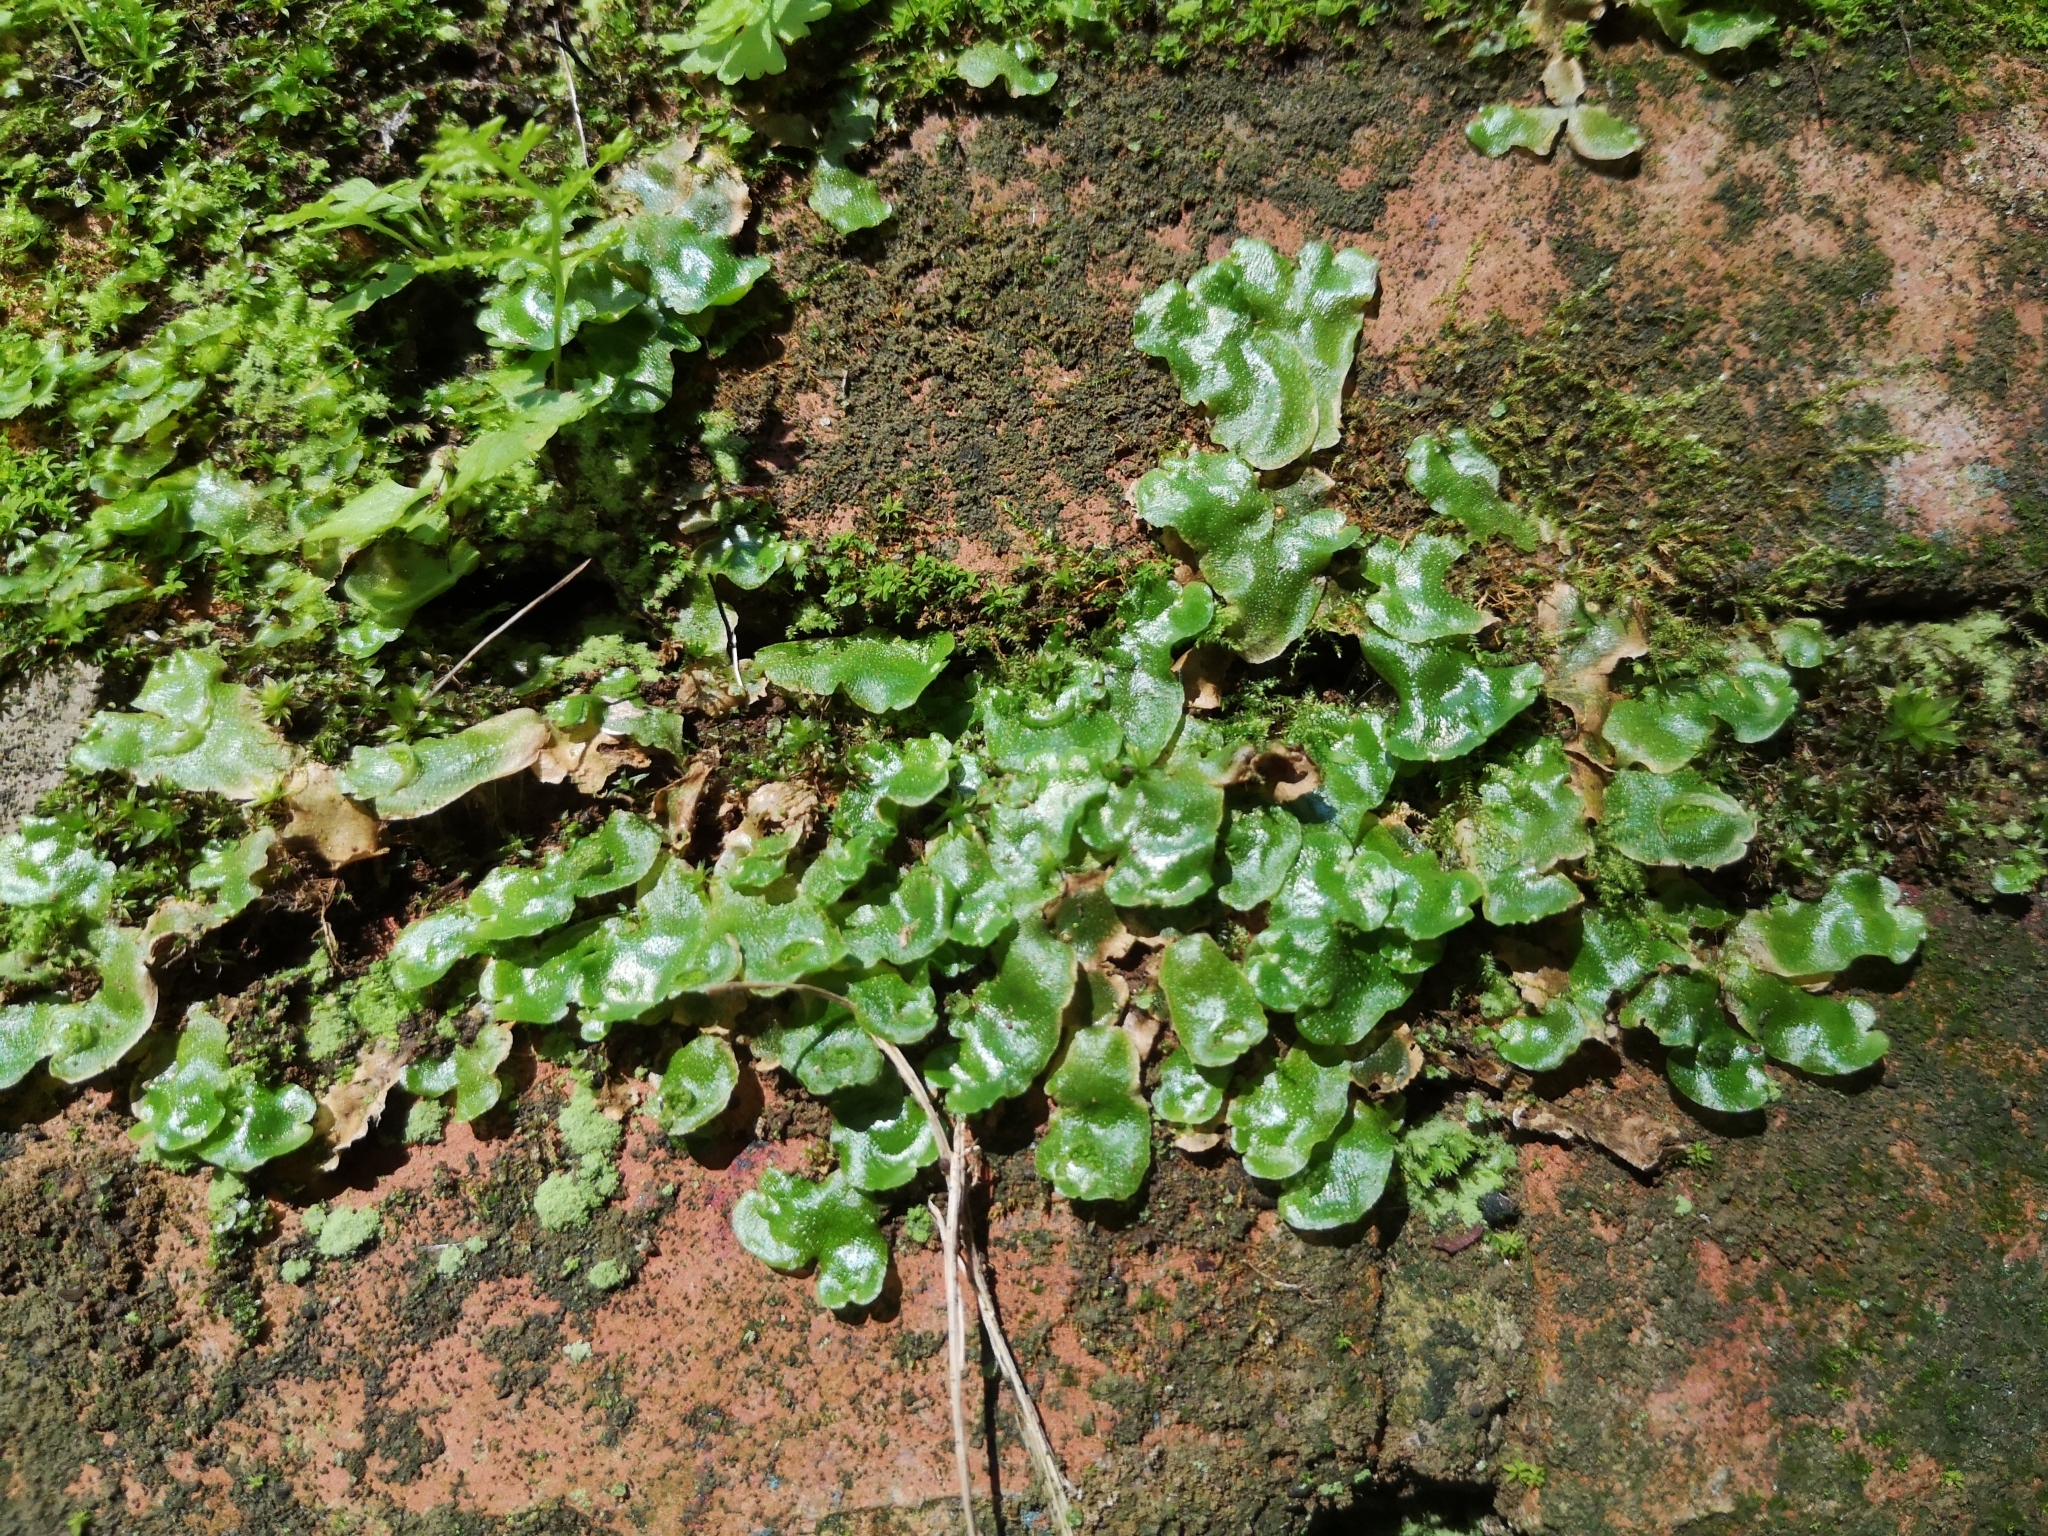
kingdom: Plantae
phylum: Marchantiophyta
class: Marchantiopsida
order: Lunulariales
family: Lunulariaceae
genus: Lunularia
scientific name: Lunularia cruciata
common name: Crescent-cup liverwort
